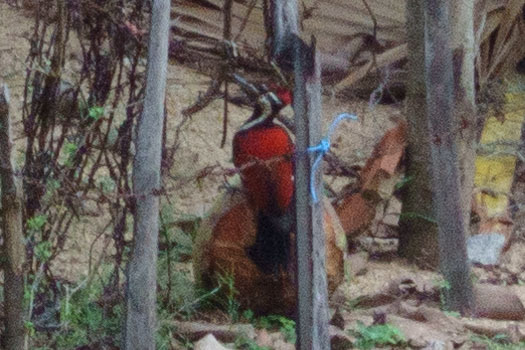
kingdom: Animalia
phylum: Chordata
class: Aves
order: Piciformes
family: Picidae
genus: Dinopium
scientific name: Dinopium psarodes
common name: Red-backed flameback
